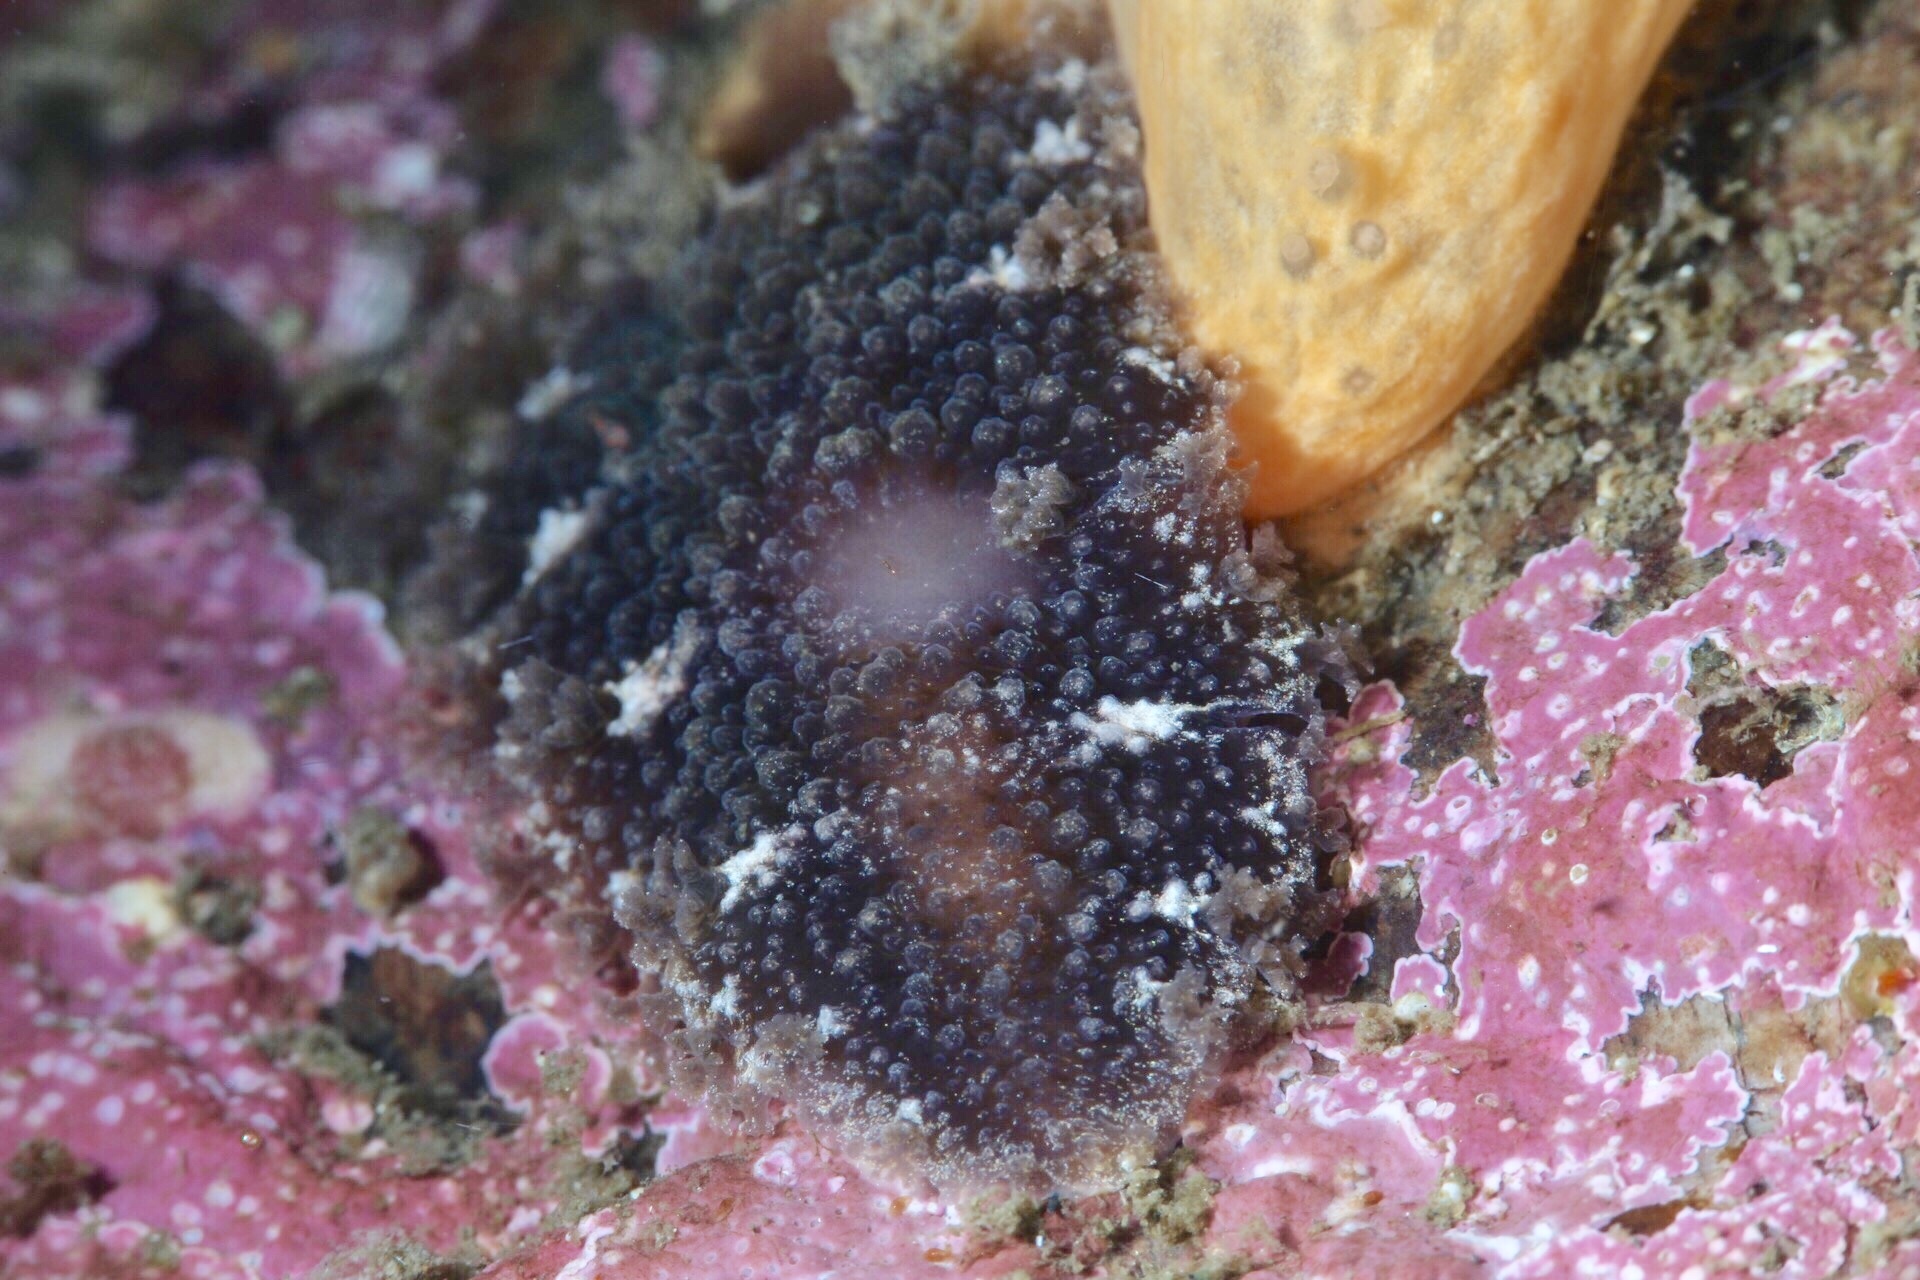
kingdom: Animalia
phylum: Mollusca
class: Gastropoda
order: Nudibranchia
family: Tritoniidae
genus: Tritonia
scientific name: Tritonia hombergii
